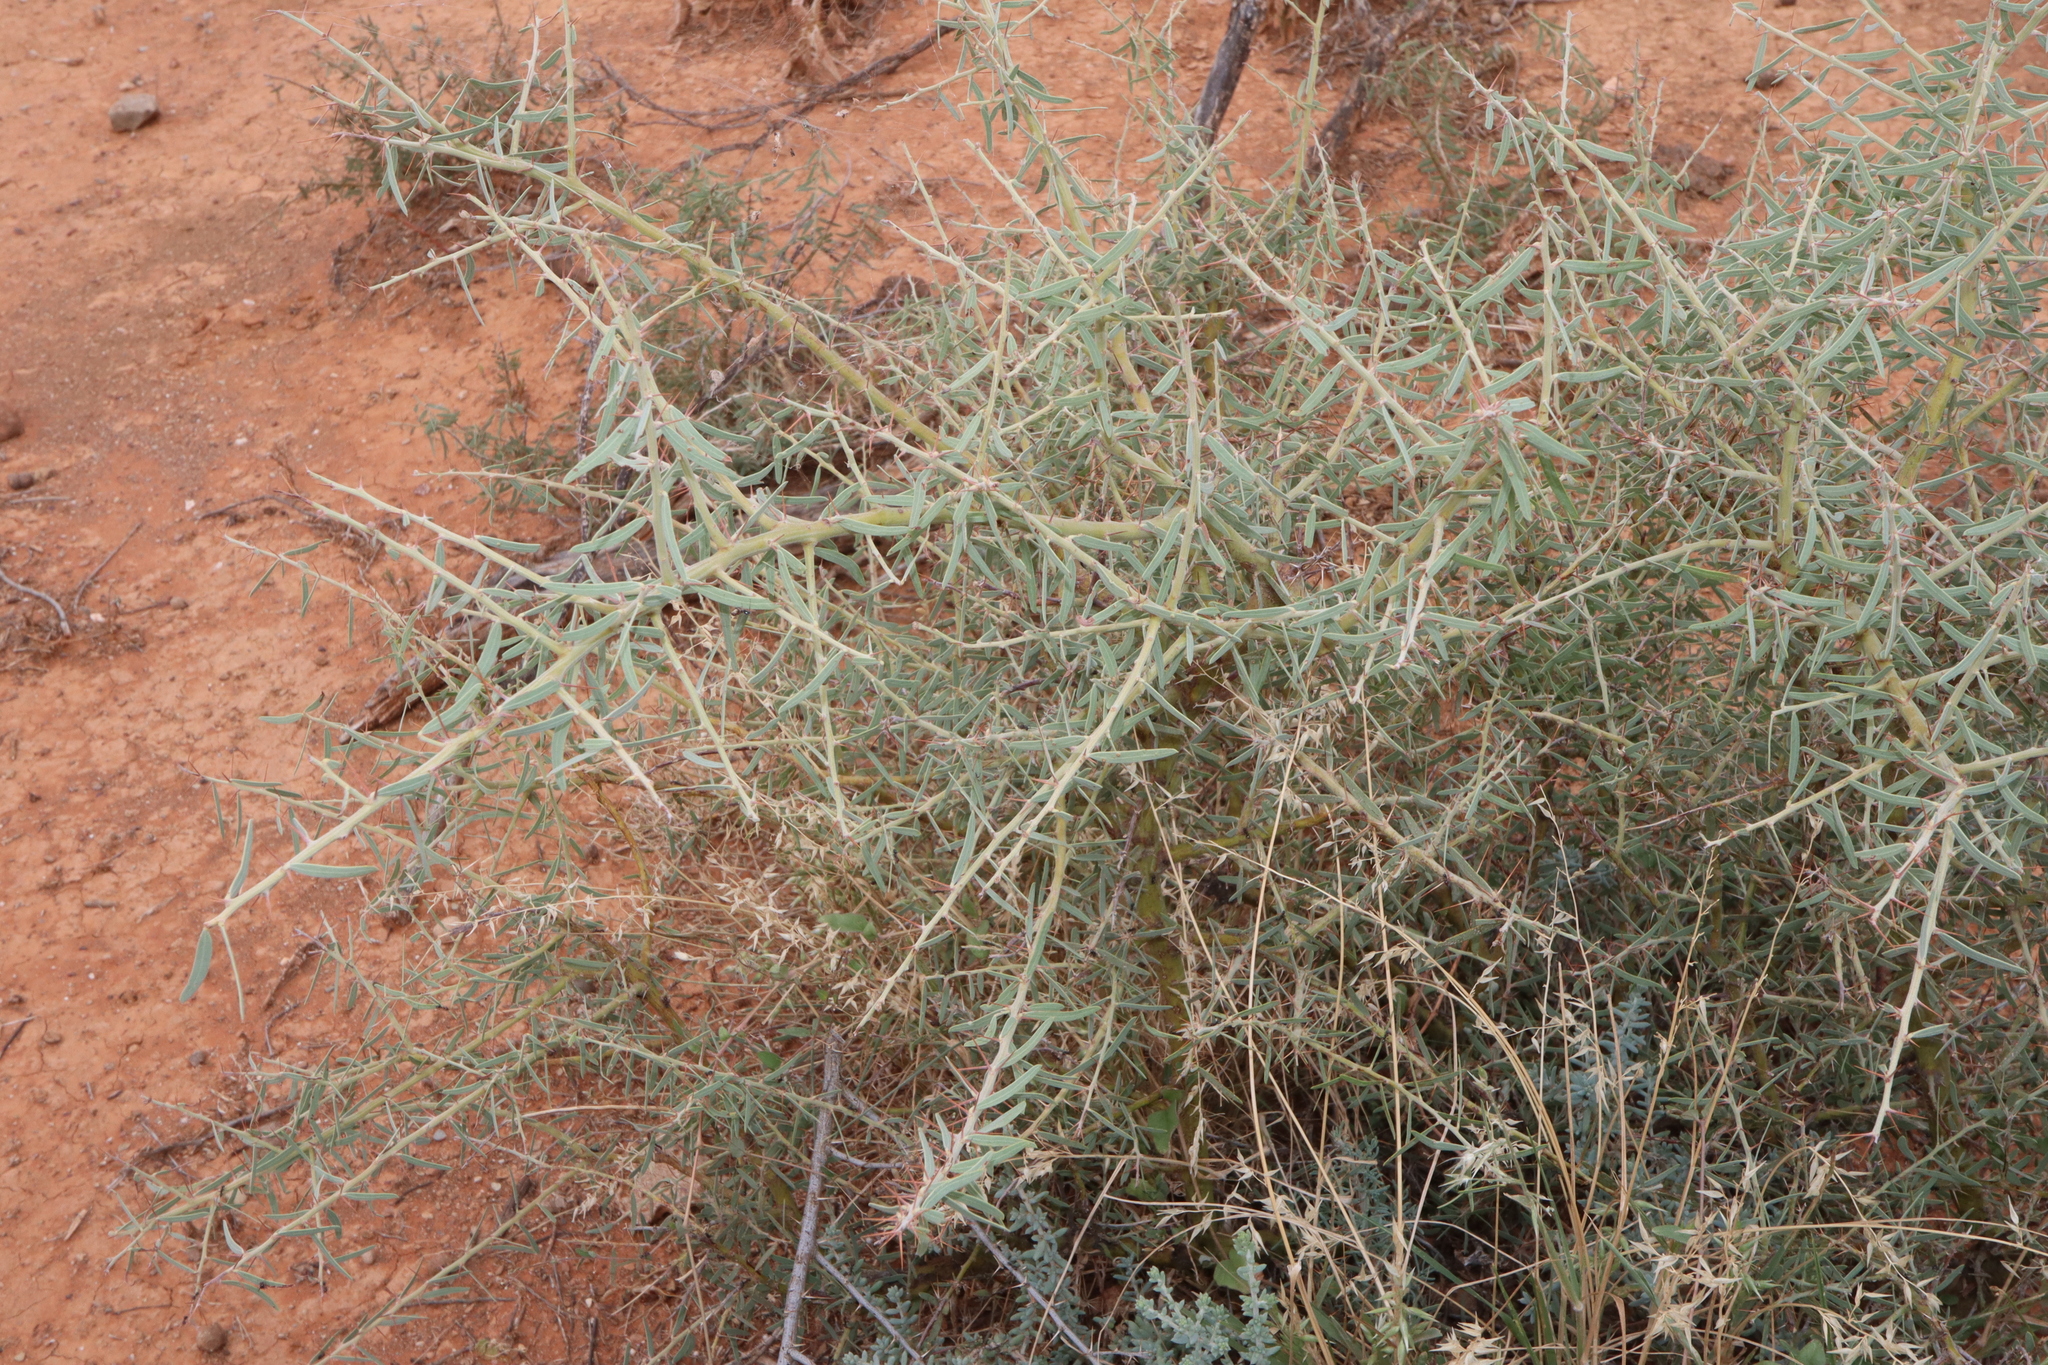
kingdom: Plantae
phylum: Tracheophyta
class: Magnoliopsida
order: Fabales
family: Fabaceae
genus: Acacia
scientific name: Acacia victoriae
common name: Bramble wattle
